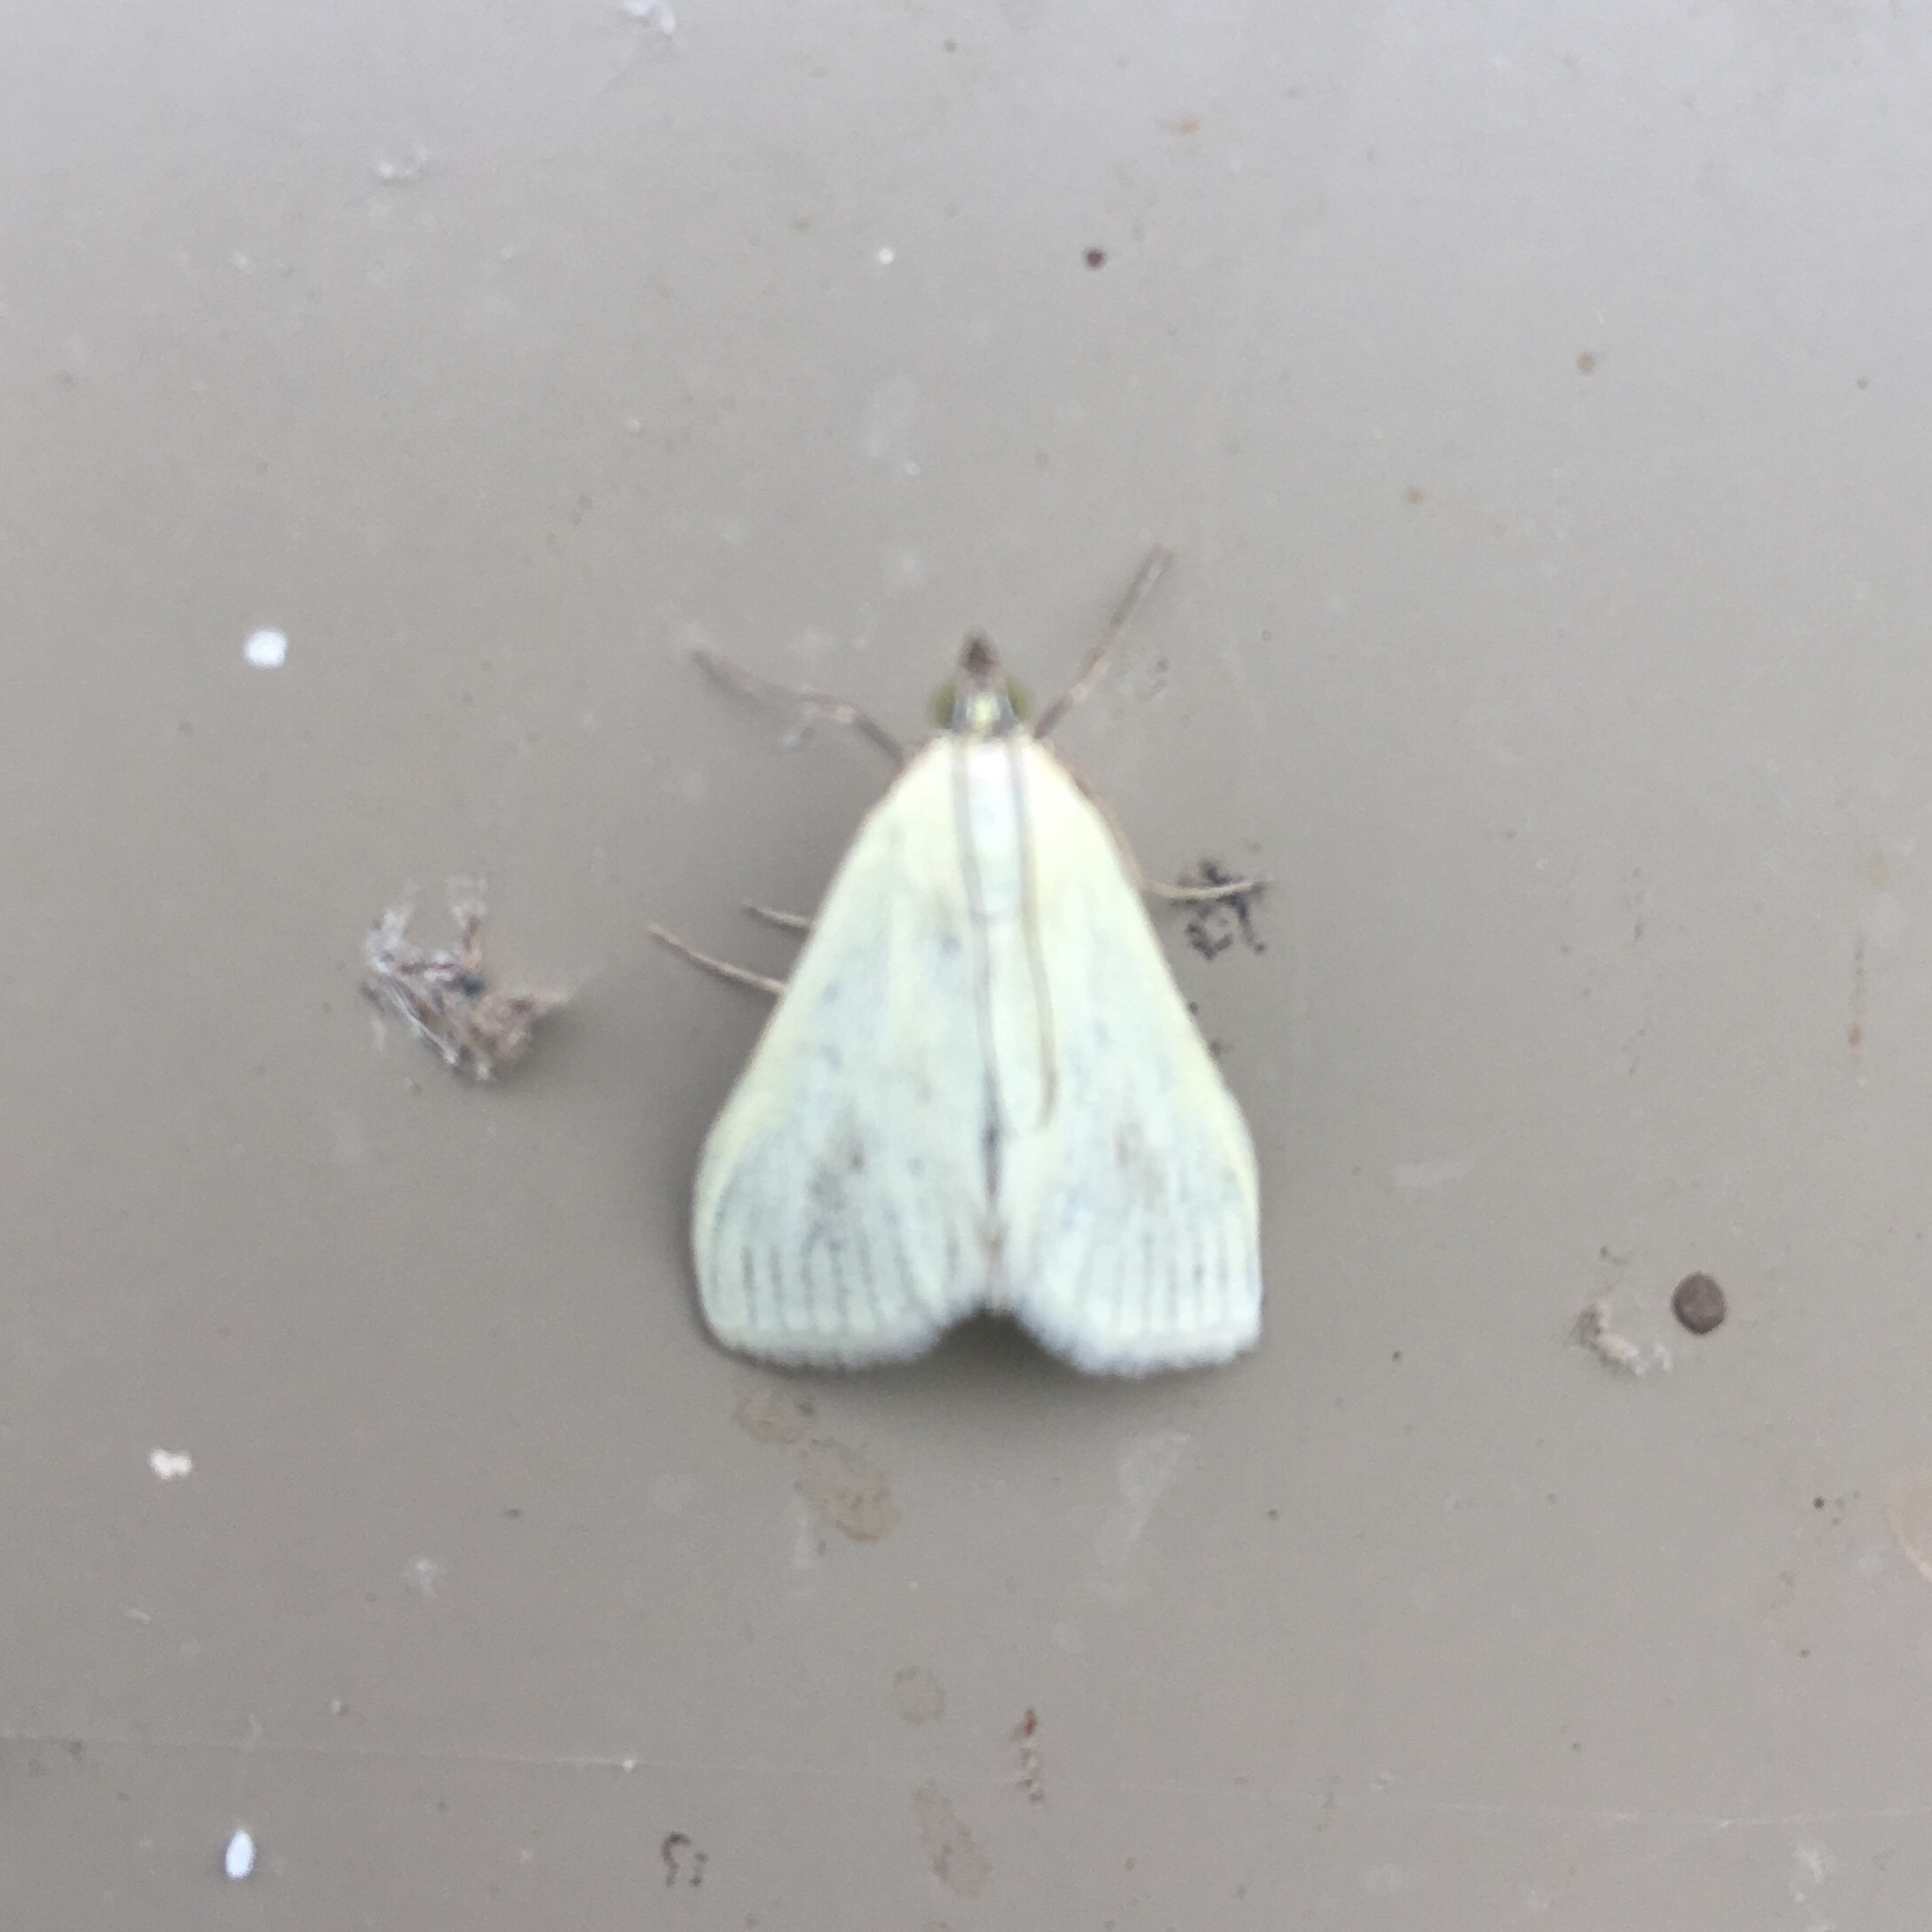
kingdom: Animalia
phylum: Arthropoda
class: Insecta
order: Lepidoptera
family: Crambidae
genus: Sitochroa
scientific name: Sitochroa palealis
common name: Greenish-yellow sitochroa moth
